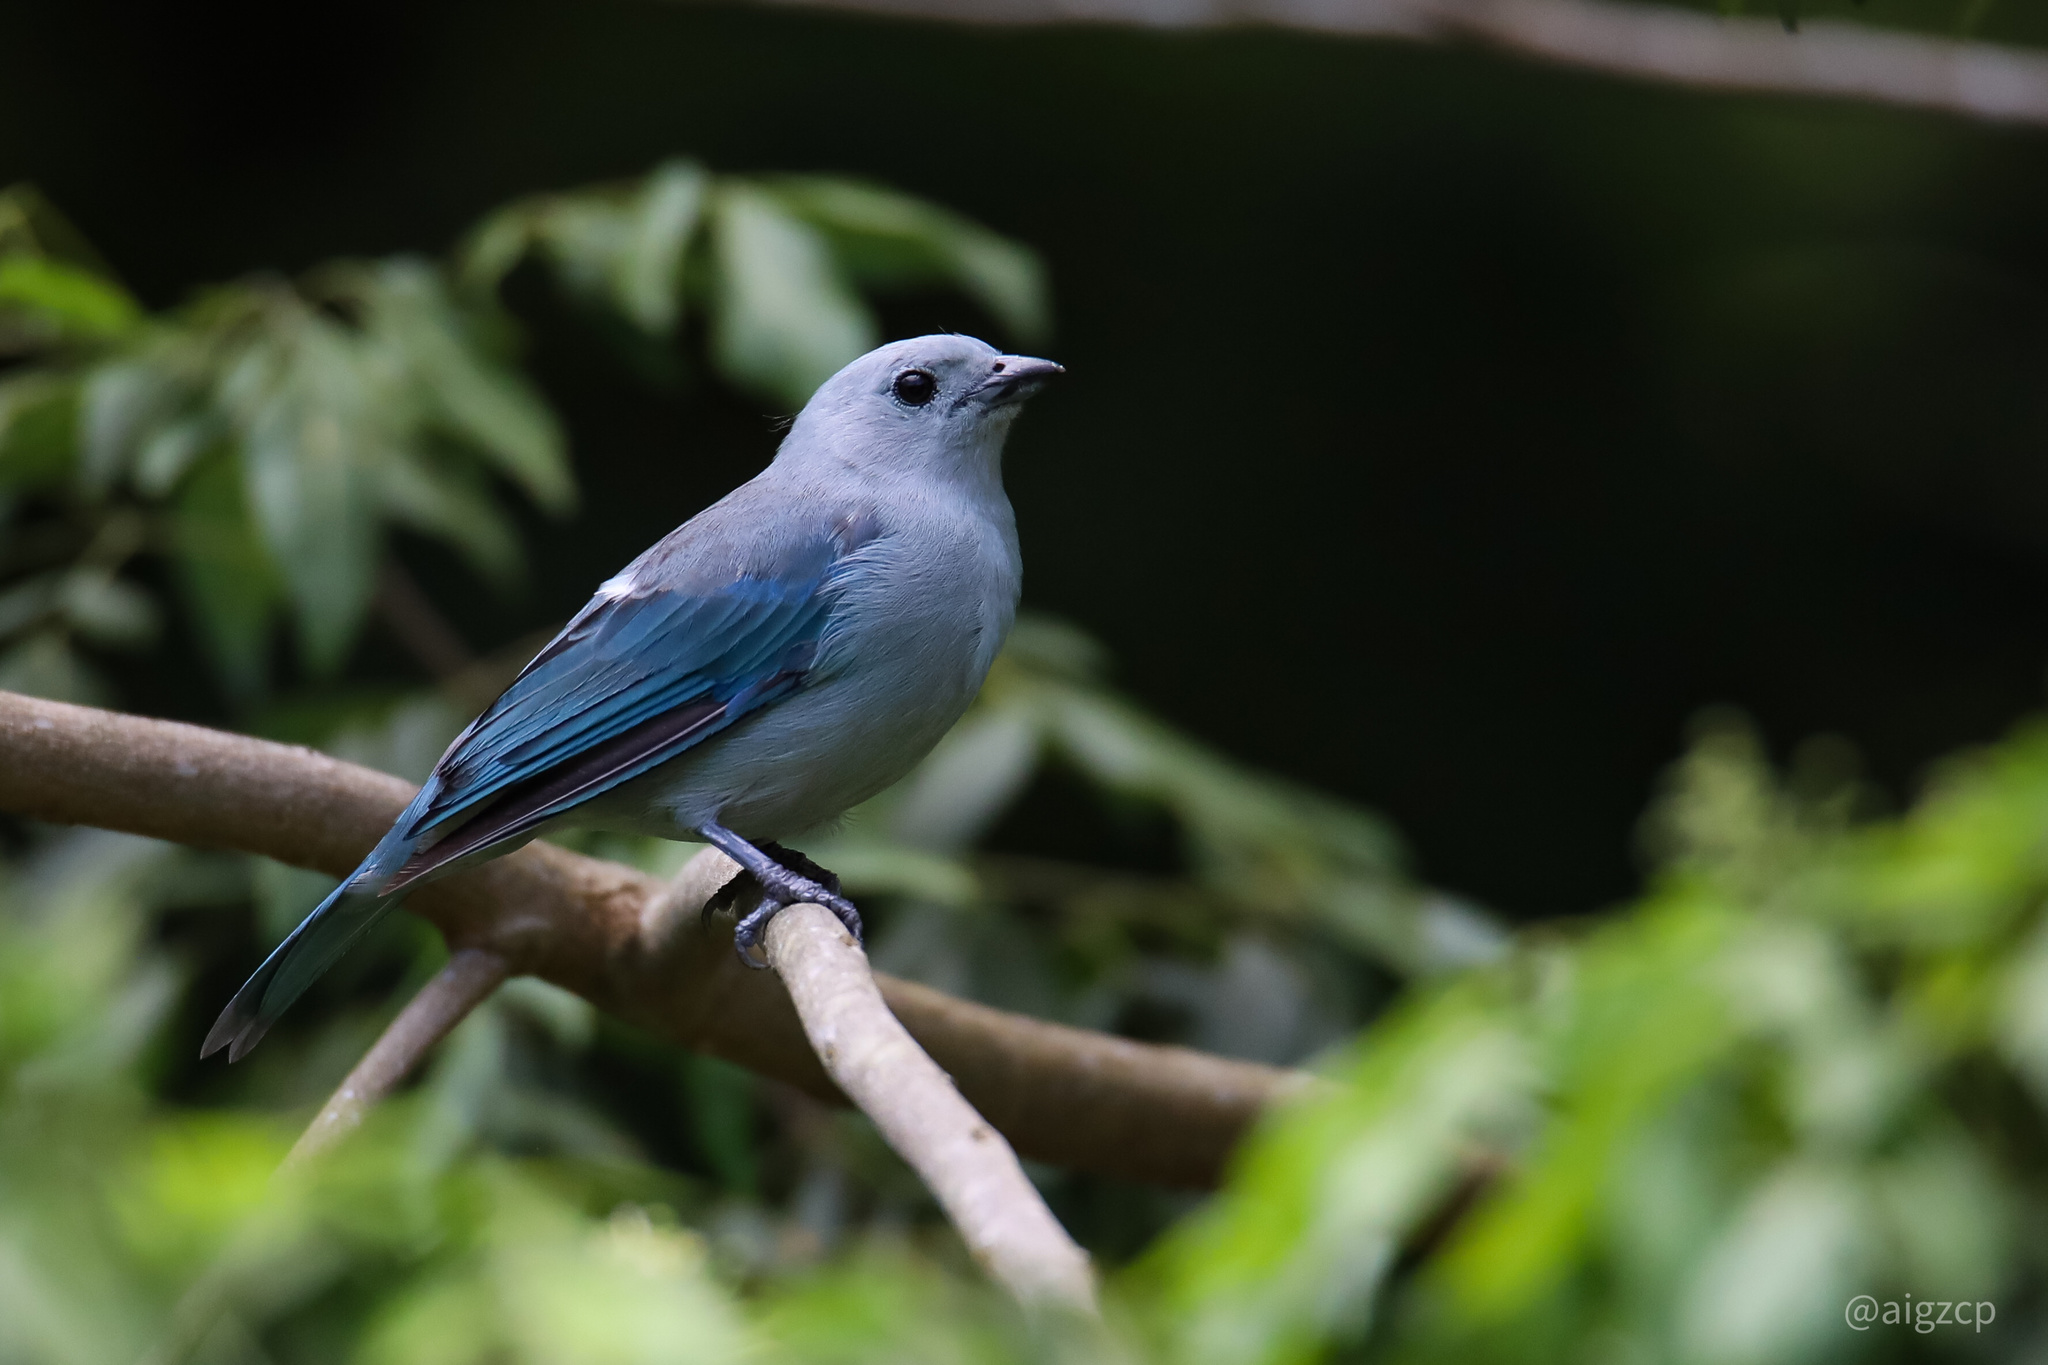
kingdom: Animalia
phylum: Chordata
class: Aves
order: Passeriformes
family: Thraupidae
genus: Thraupis
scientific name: Thraupis episcopus
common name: Blue-grey tanager
